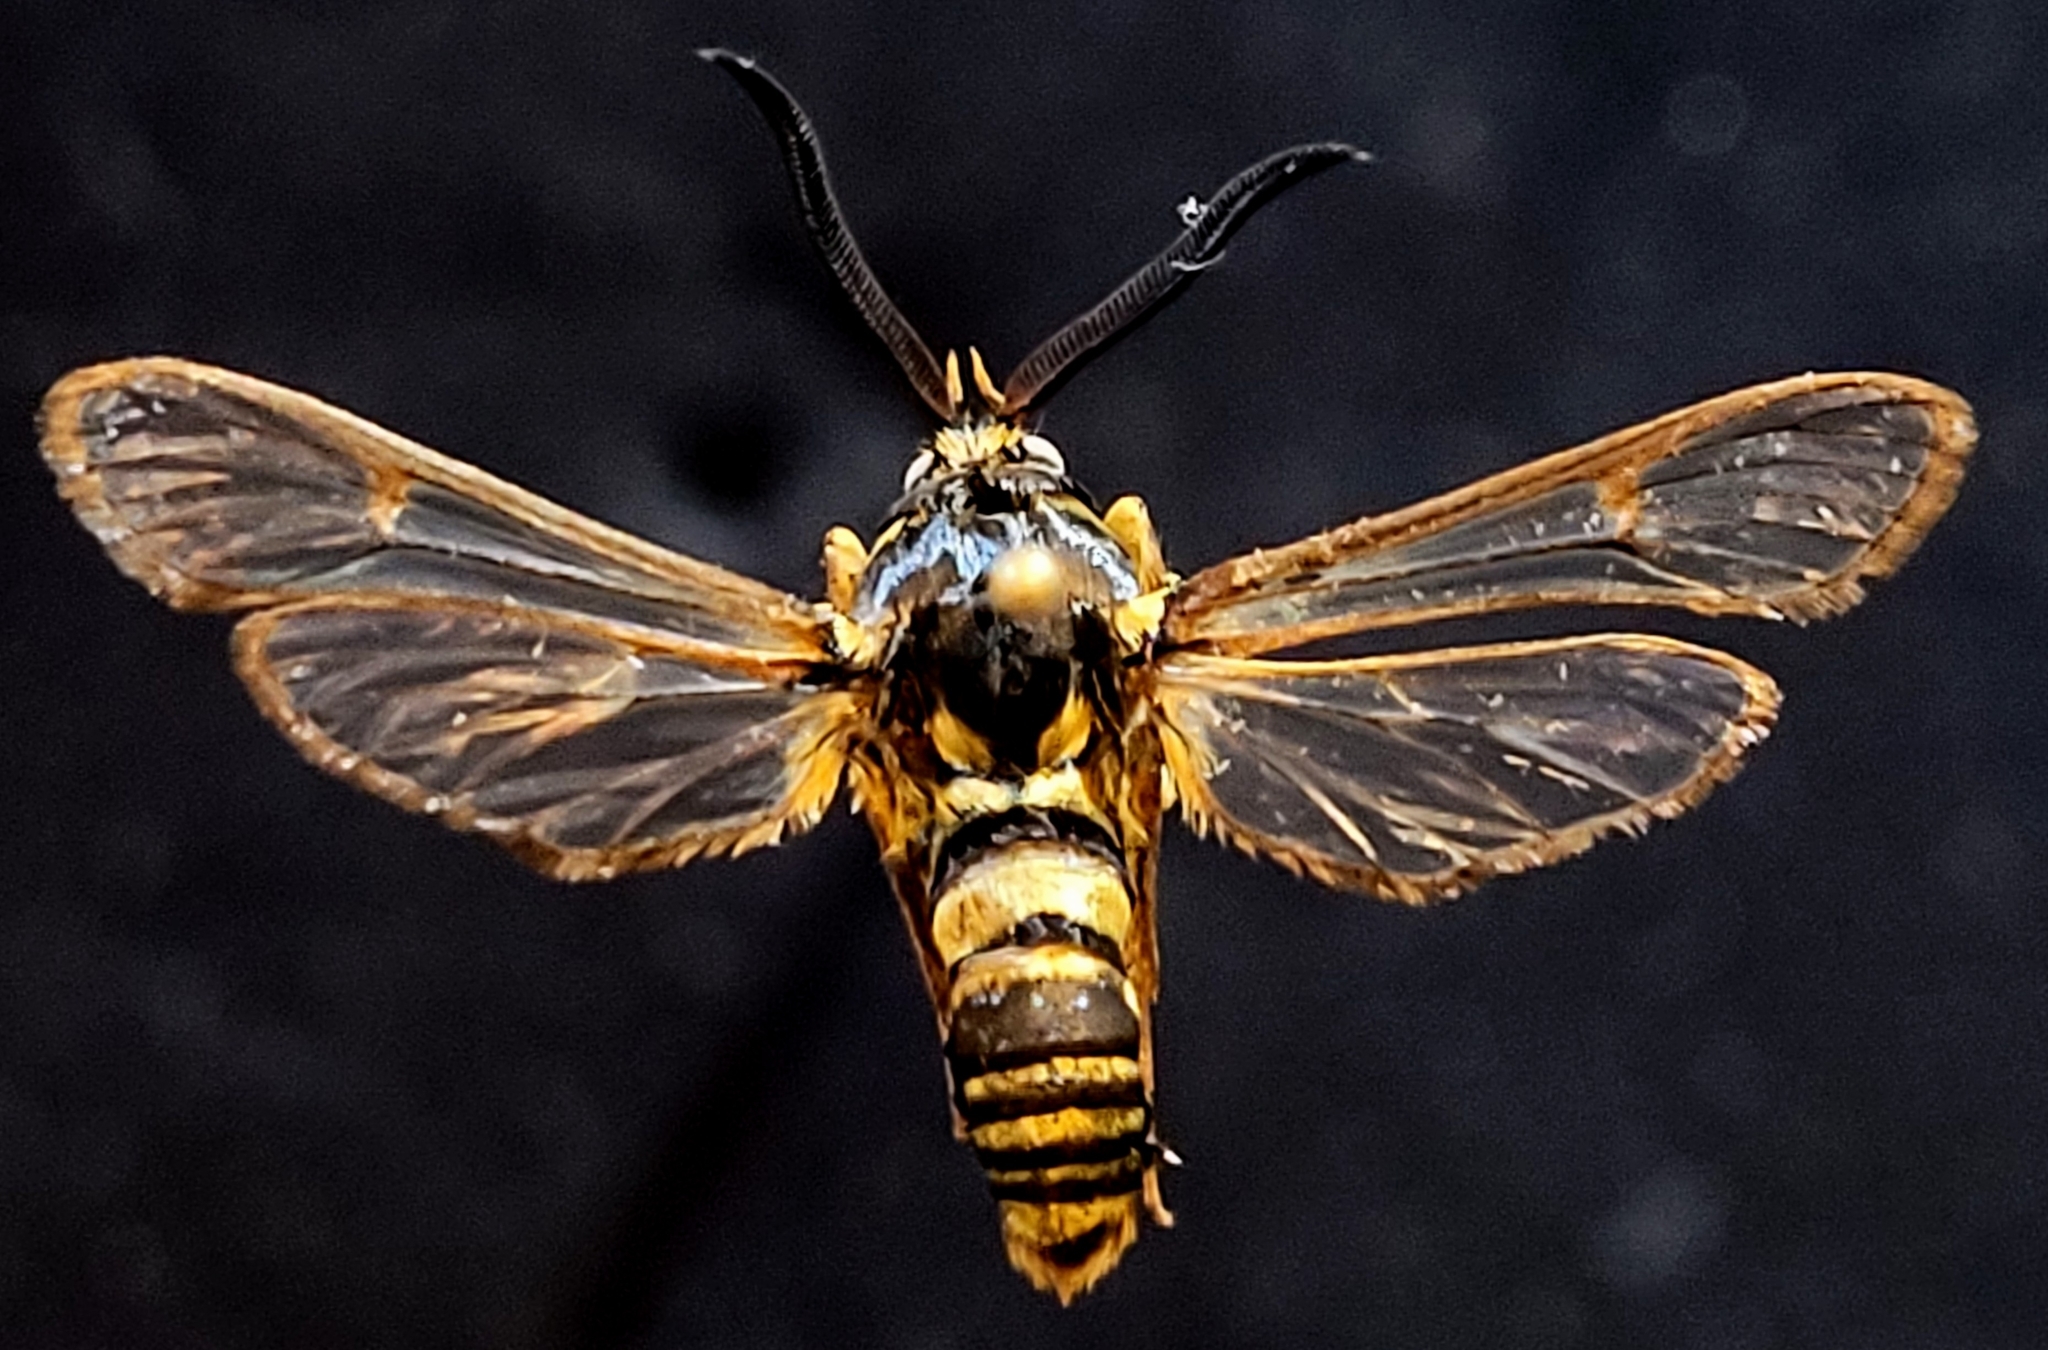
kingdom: Animalia
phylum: Arthropoda
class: Insecta
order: Lepidoptera
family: Sesiidae
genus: Sesia
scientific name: Sesia tibiale
